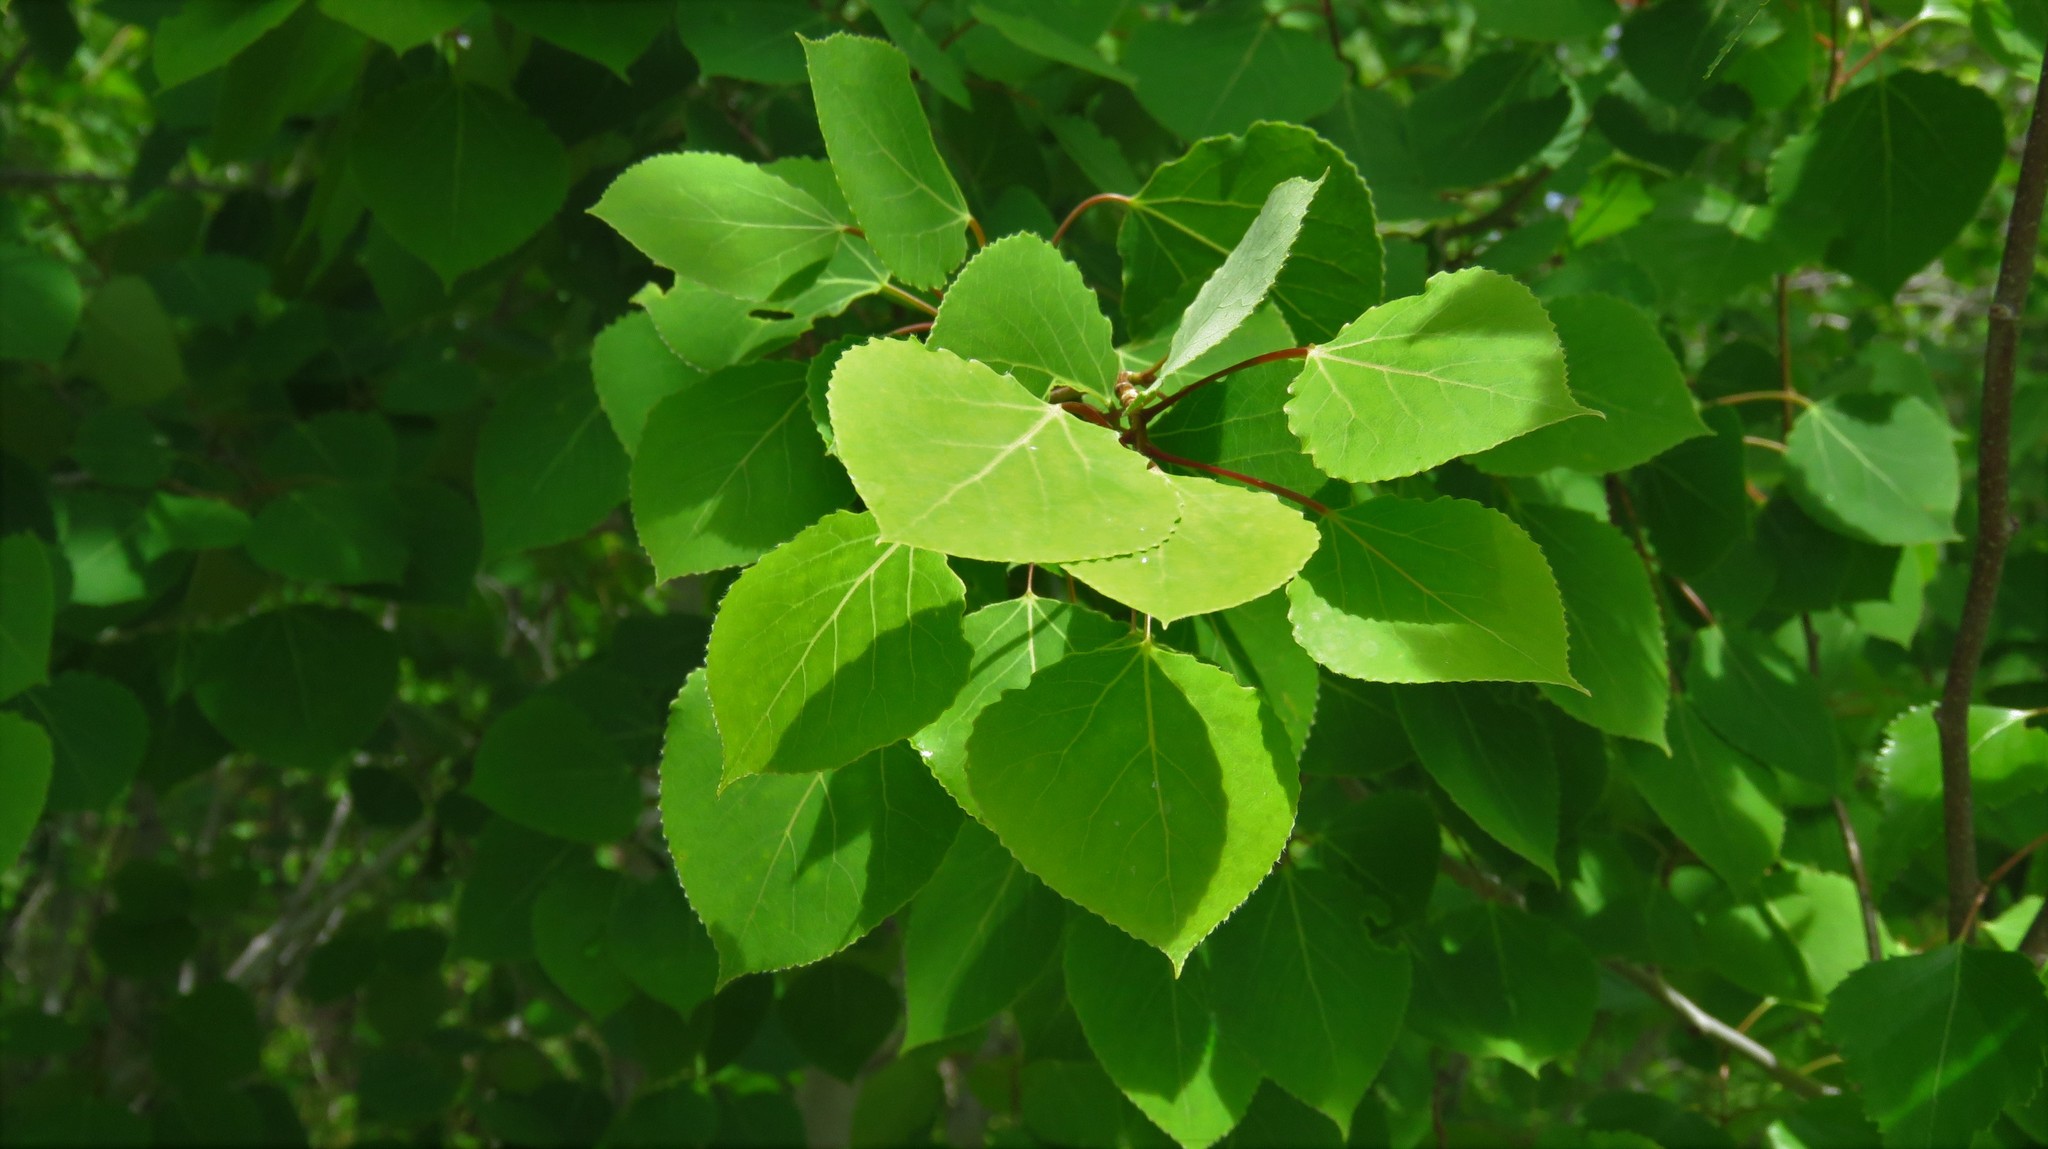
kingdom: Plantae
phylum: Tracheophyta
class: Magnoliopsida
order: Malpighiales
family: Salicaceae
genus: Populus
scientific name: Populus tremuloides
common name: Quaking aspen
